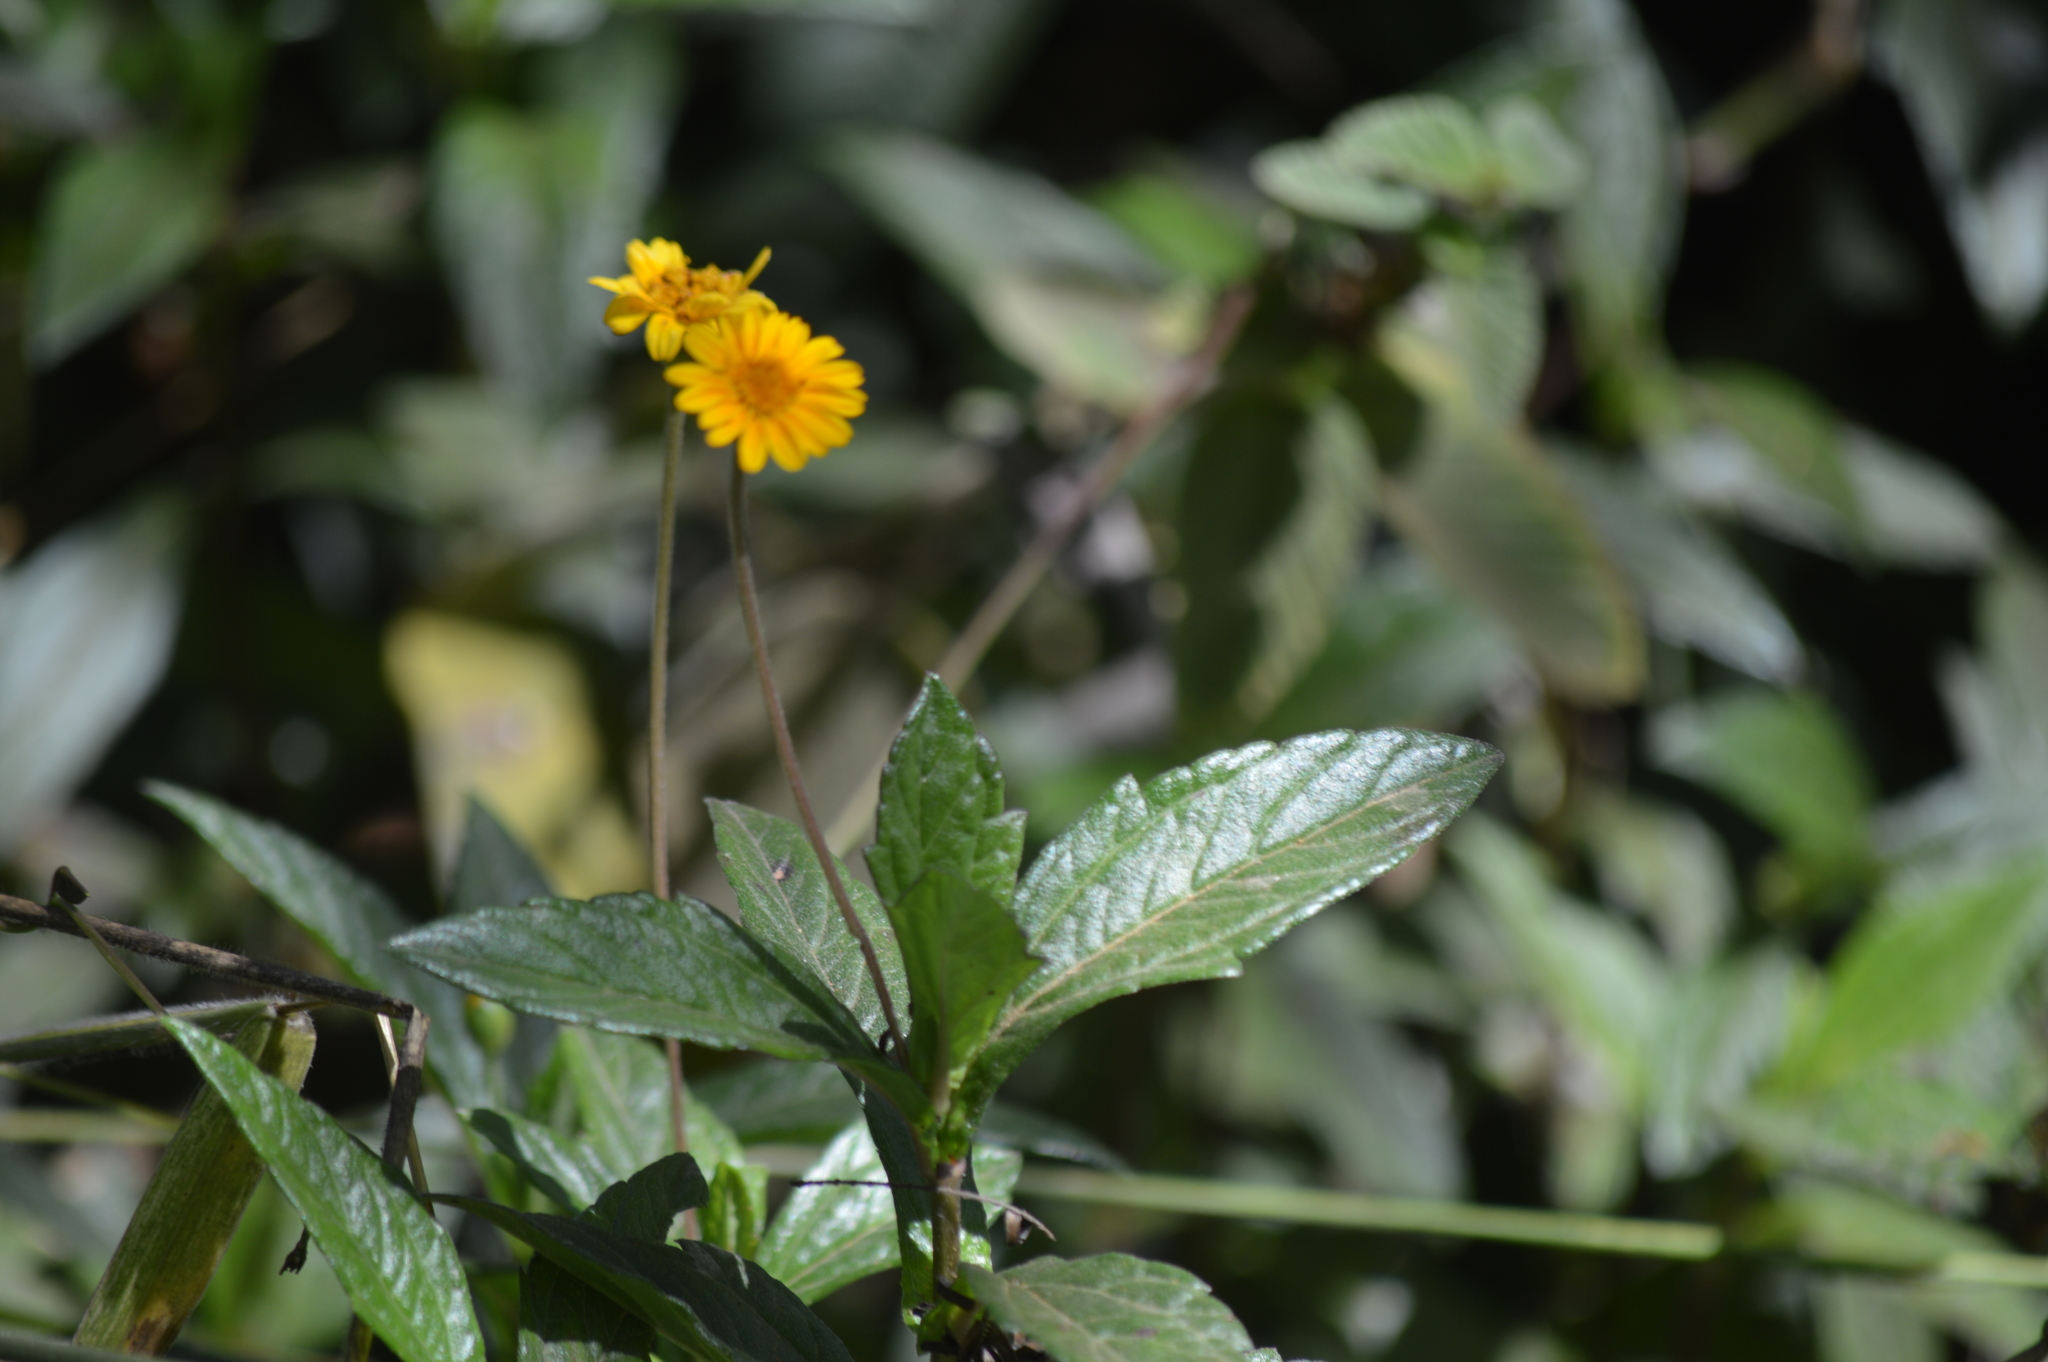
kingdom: Plantae
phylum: Tracheophyta
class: Magnoliopsida
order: Asterales
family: Asteraceae
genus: Sphagneticola
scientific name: Sphagneticola trilobata
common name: Bay biscayne creeping-oxeye
